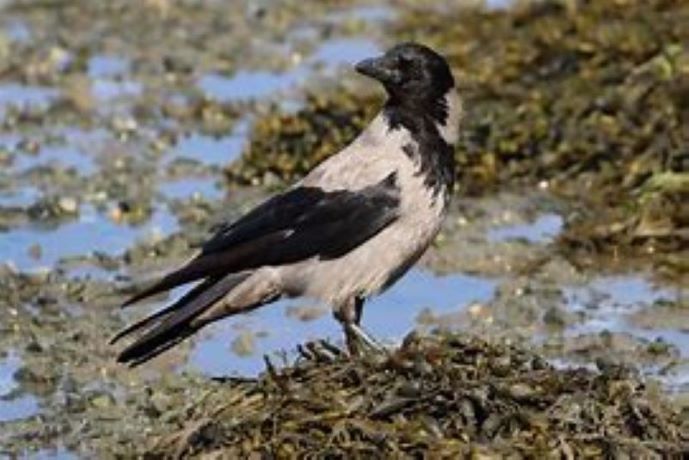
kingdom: Animalia
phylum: Chordata
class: Aves
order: Passeriformes
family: Corvidae
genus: Corvus
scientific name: Corvus cornix
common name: Hooded crow
